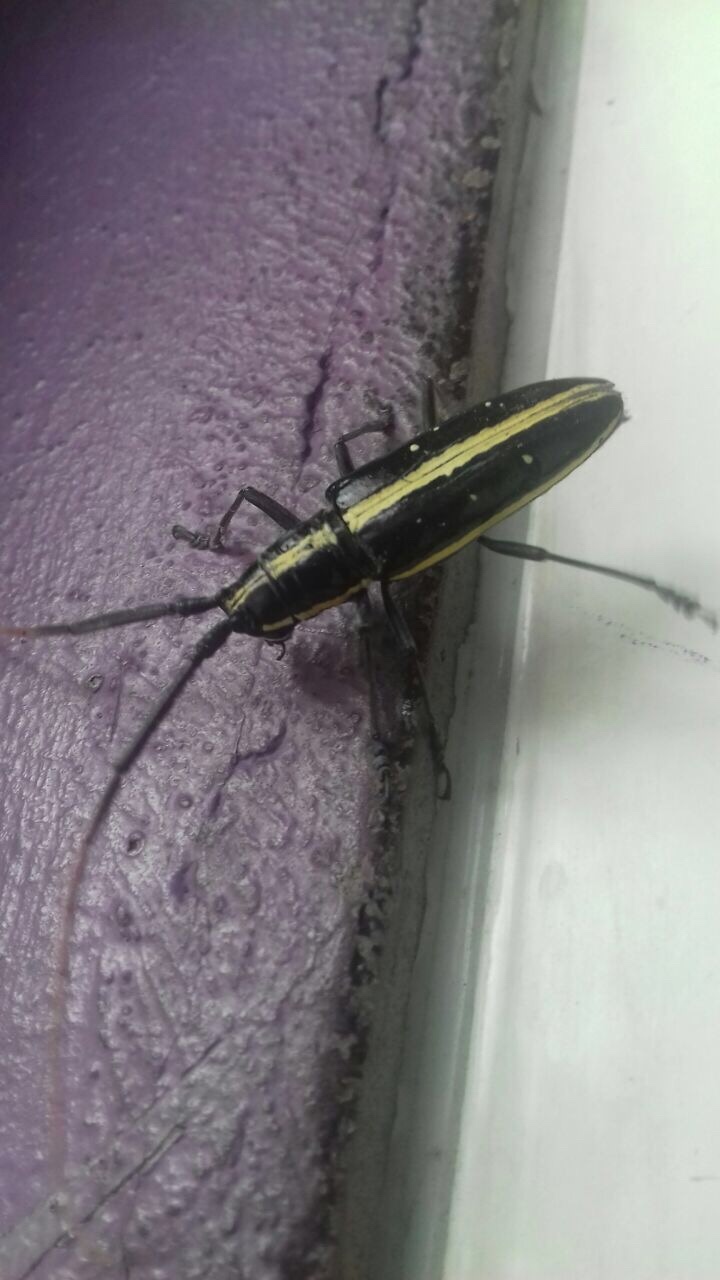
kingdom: Animalia
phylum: Arthropoda
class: Insecta
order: Coleoptera
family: Cerambycidae
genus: Ptychodes
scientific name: Ptychodes politus
